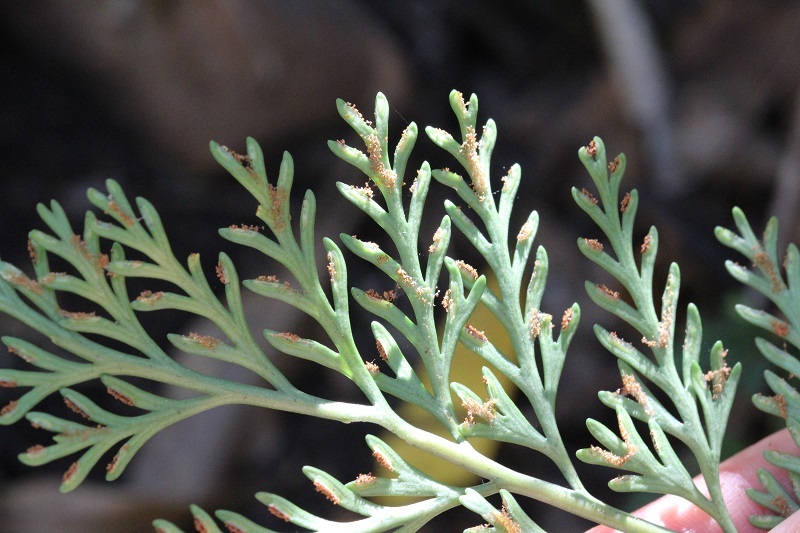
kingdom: Plantae
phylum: Tracheophyta
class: Polypodiopsida
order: Polypodiales
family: Aspleniaceae
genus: Asplenium
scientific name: Asplenium rutifolium
